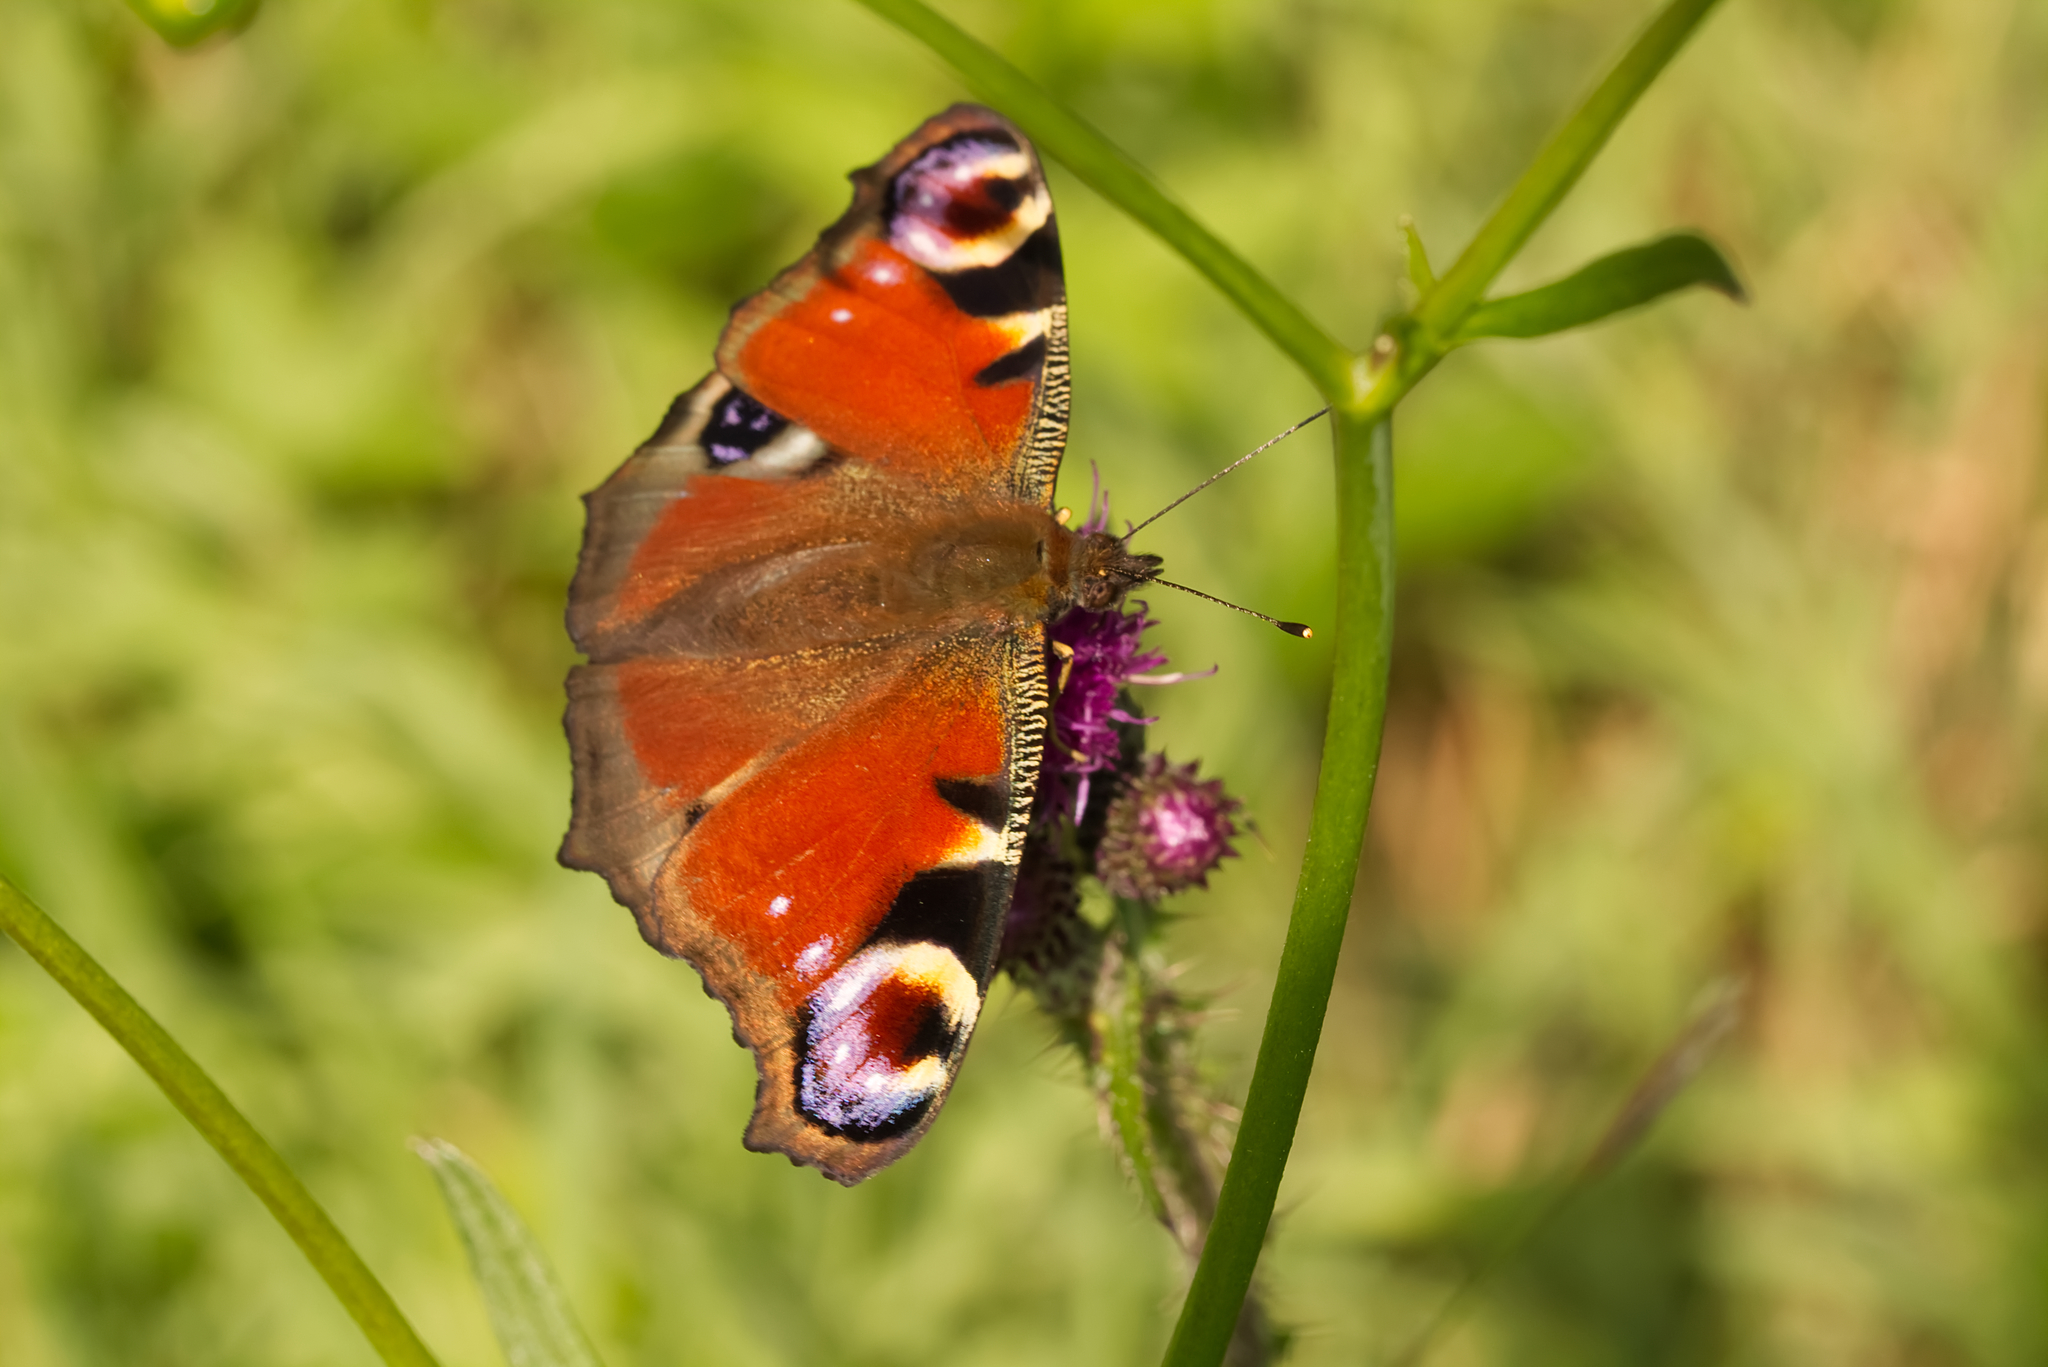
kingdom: Animalia
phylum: Arthropoda
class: Insecta
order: Lepidoptera
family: Nymphalidae
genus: Aglais
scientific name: Aglais io
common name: Peacock
